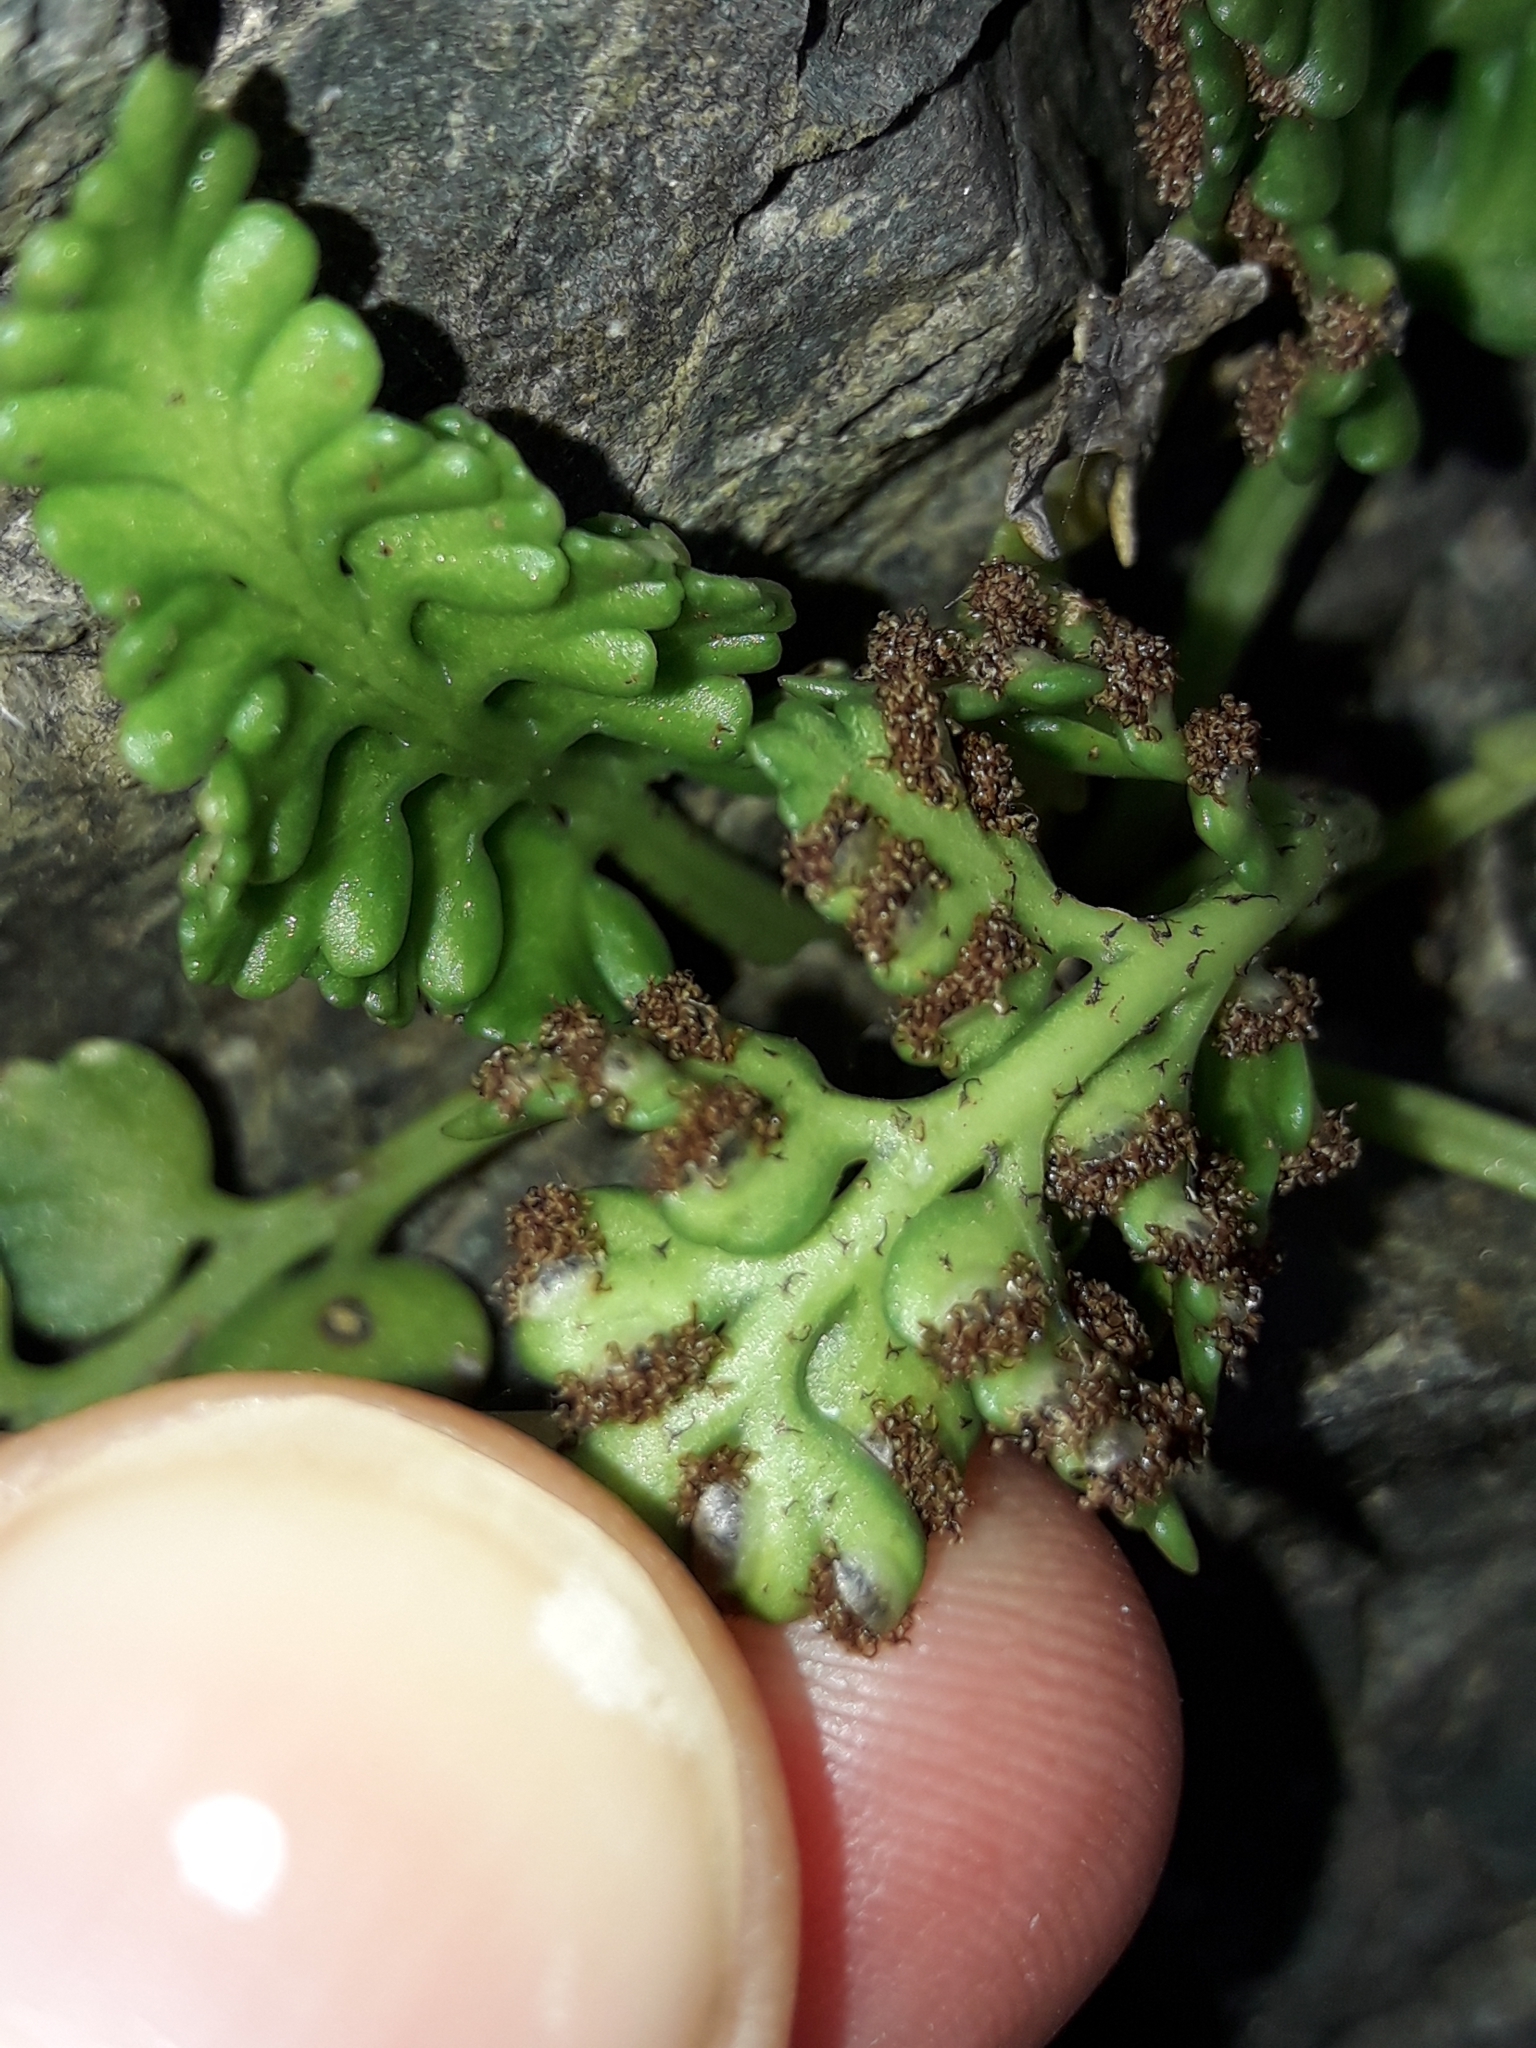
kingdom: Plantae
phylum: Tracheophyta
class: Polypodiopsida
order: Polypodiales
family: Aspleniaceae
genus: Asplenium
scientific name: Asplenium appendiculatum
